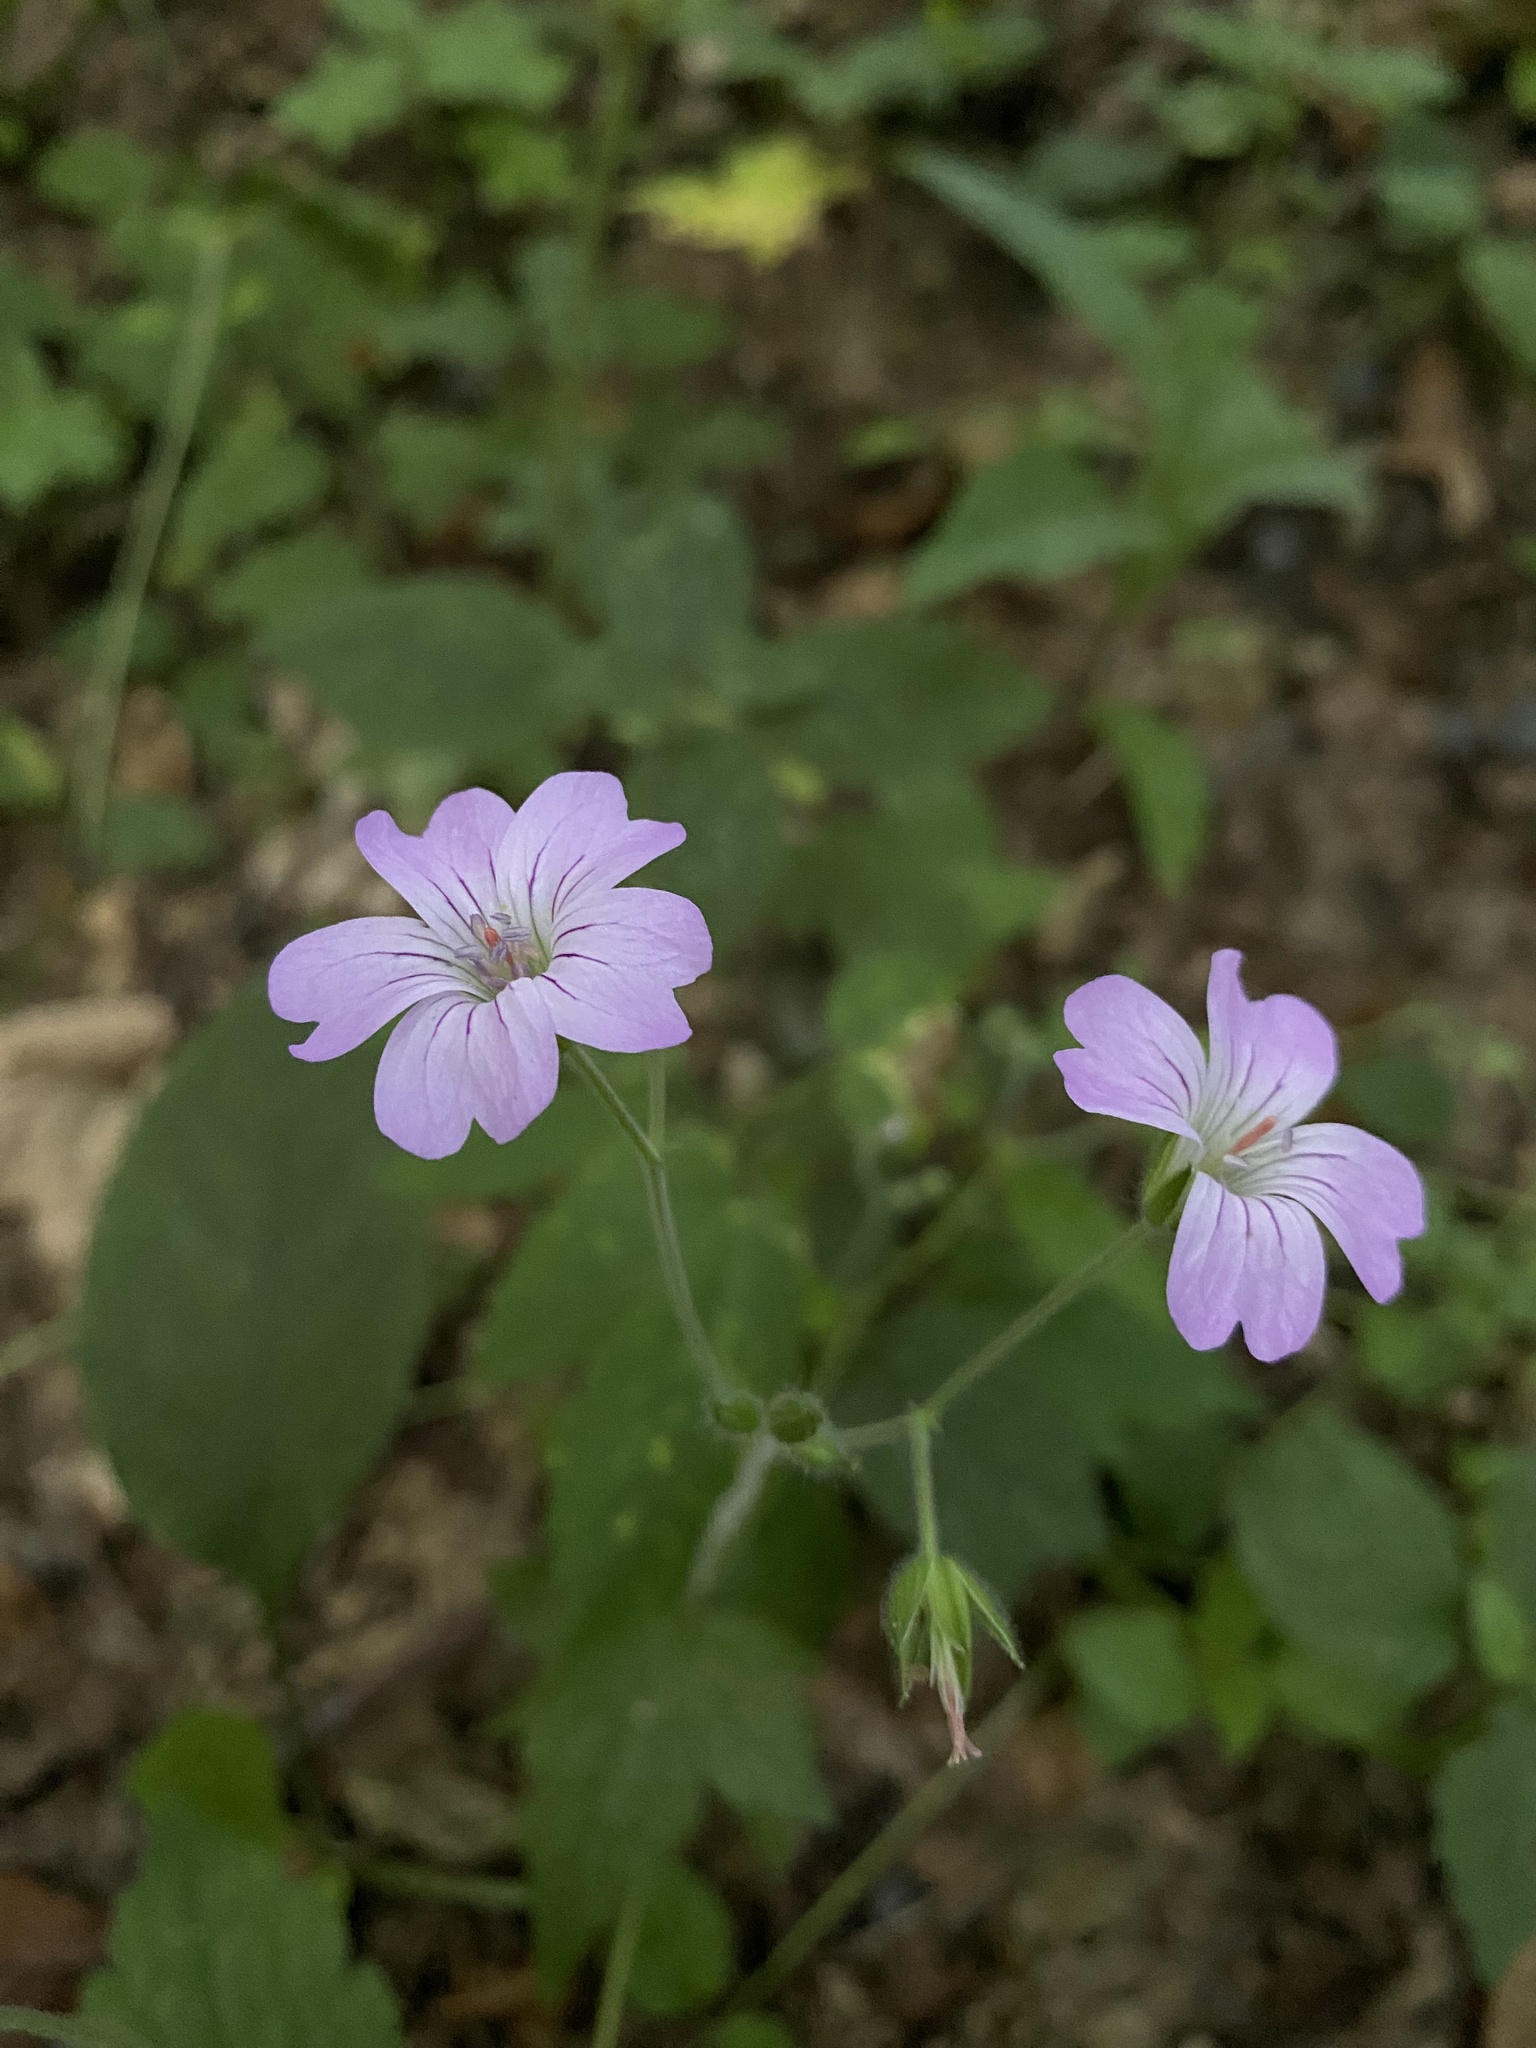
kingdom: Plantae
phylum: Tracheophyta
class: Magnoliopsida
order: Geraniales
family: Geraniaceae
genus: Geranium
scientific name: Geranium gracile
